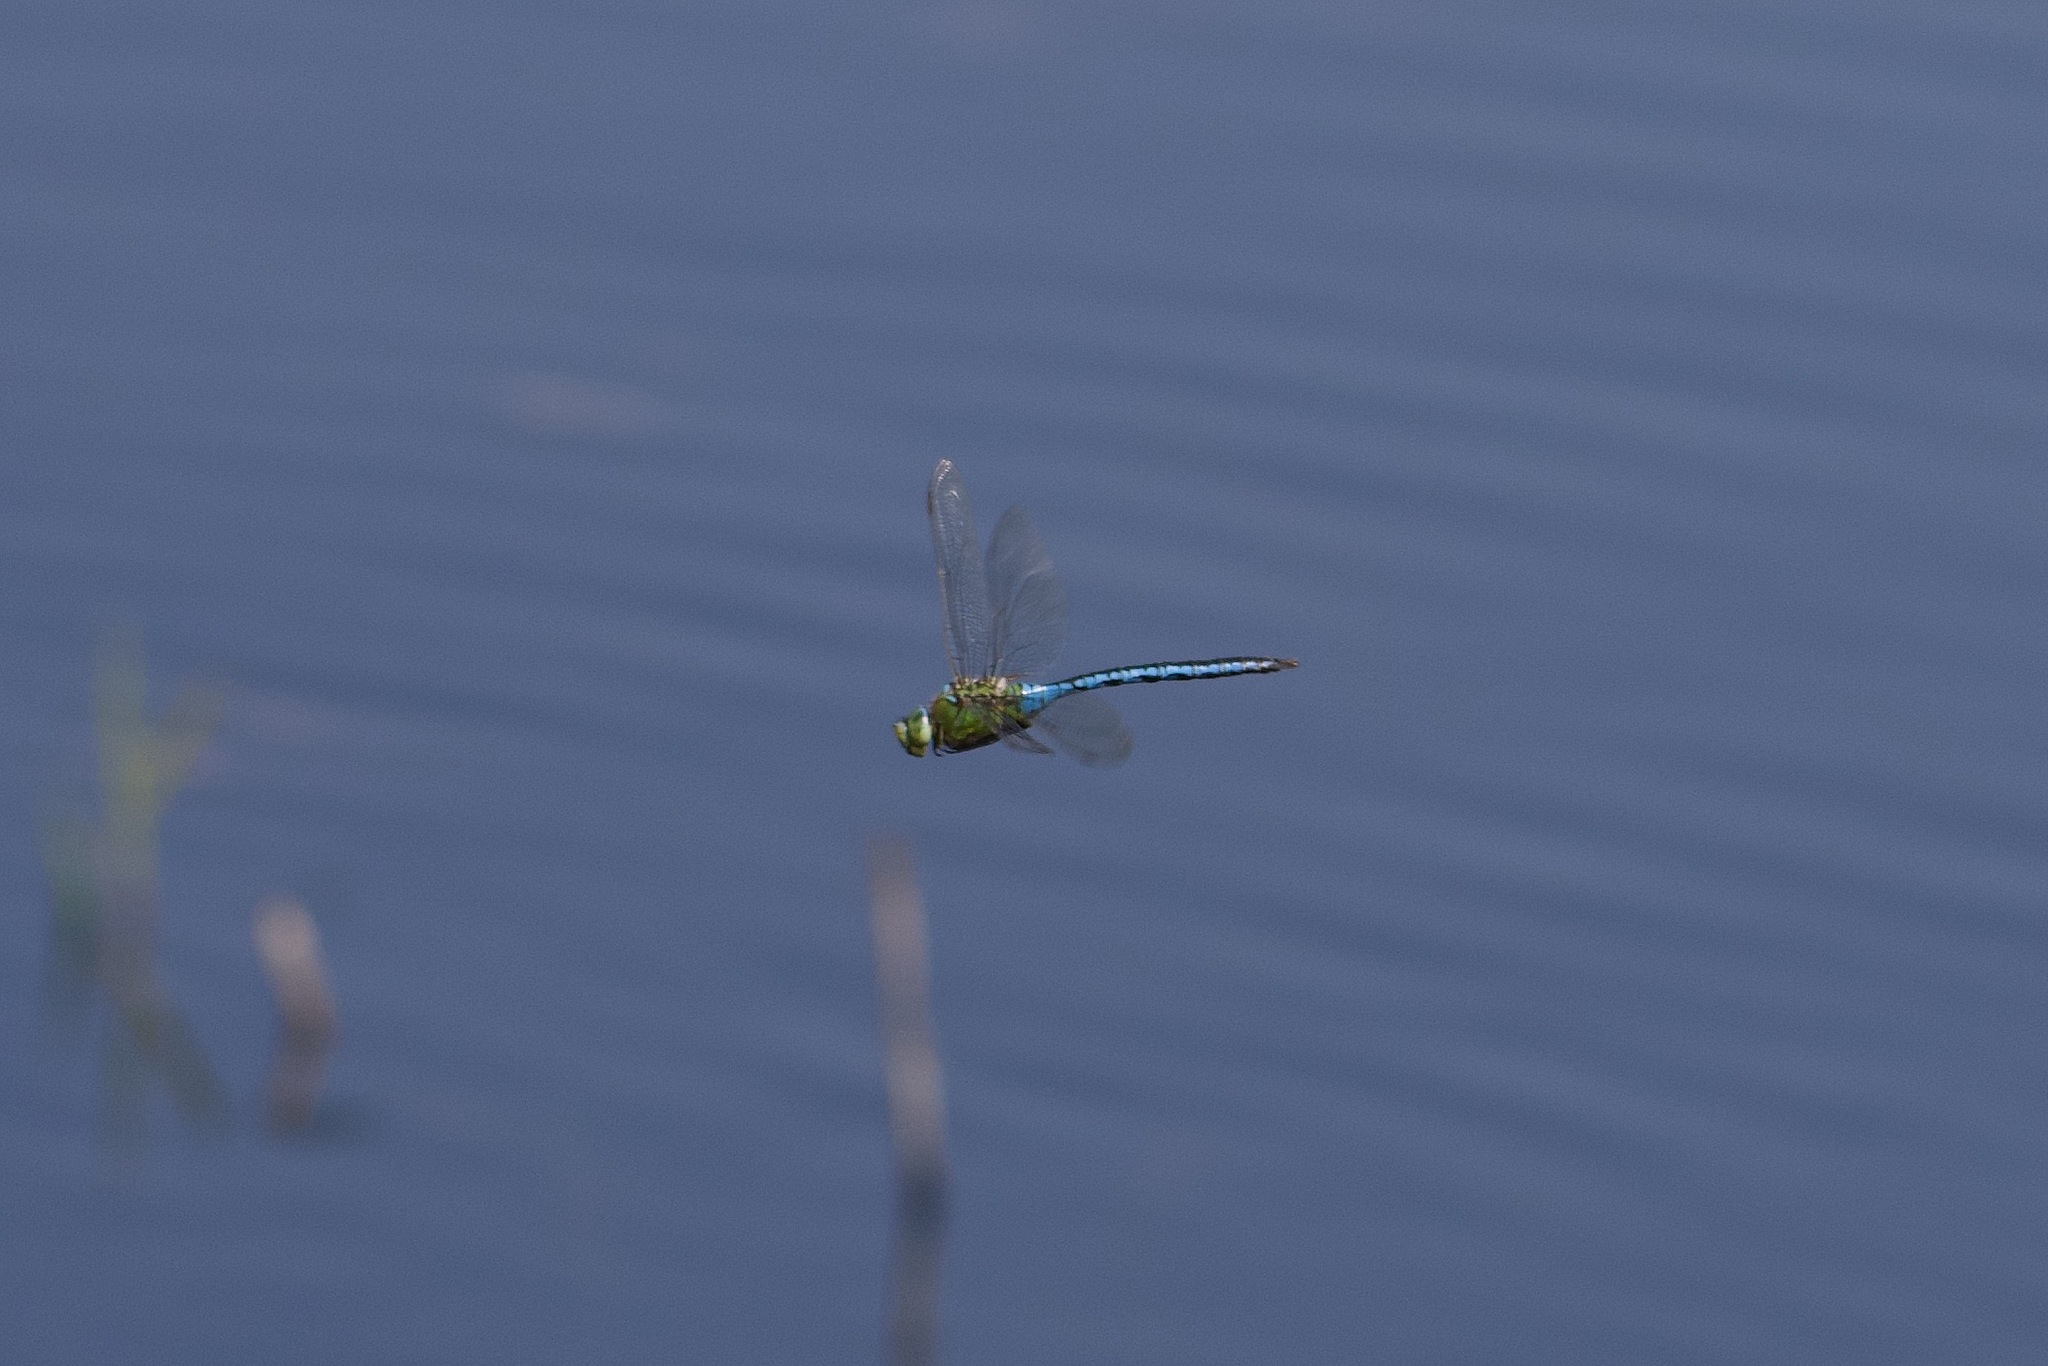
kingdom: Animalia
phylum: Arthropoda
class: Insecta
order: Odonata
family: Aeshnidae
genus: Anax
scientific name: Anax imperator
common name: Emperor dragonfly
